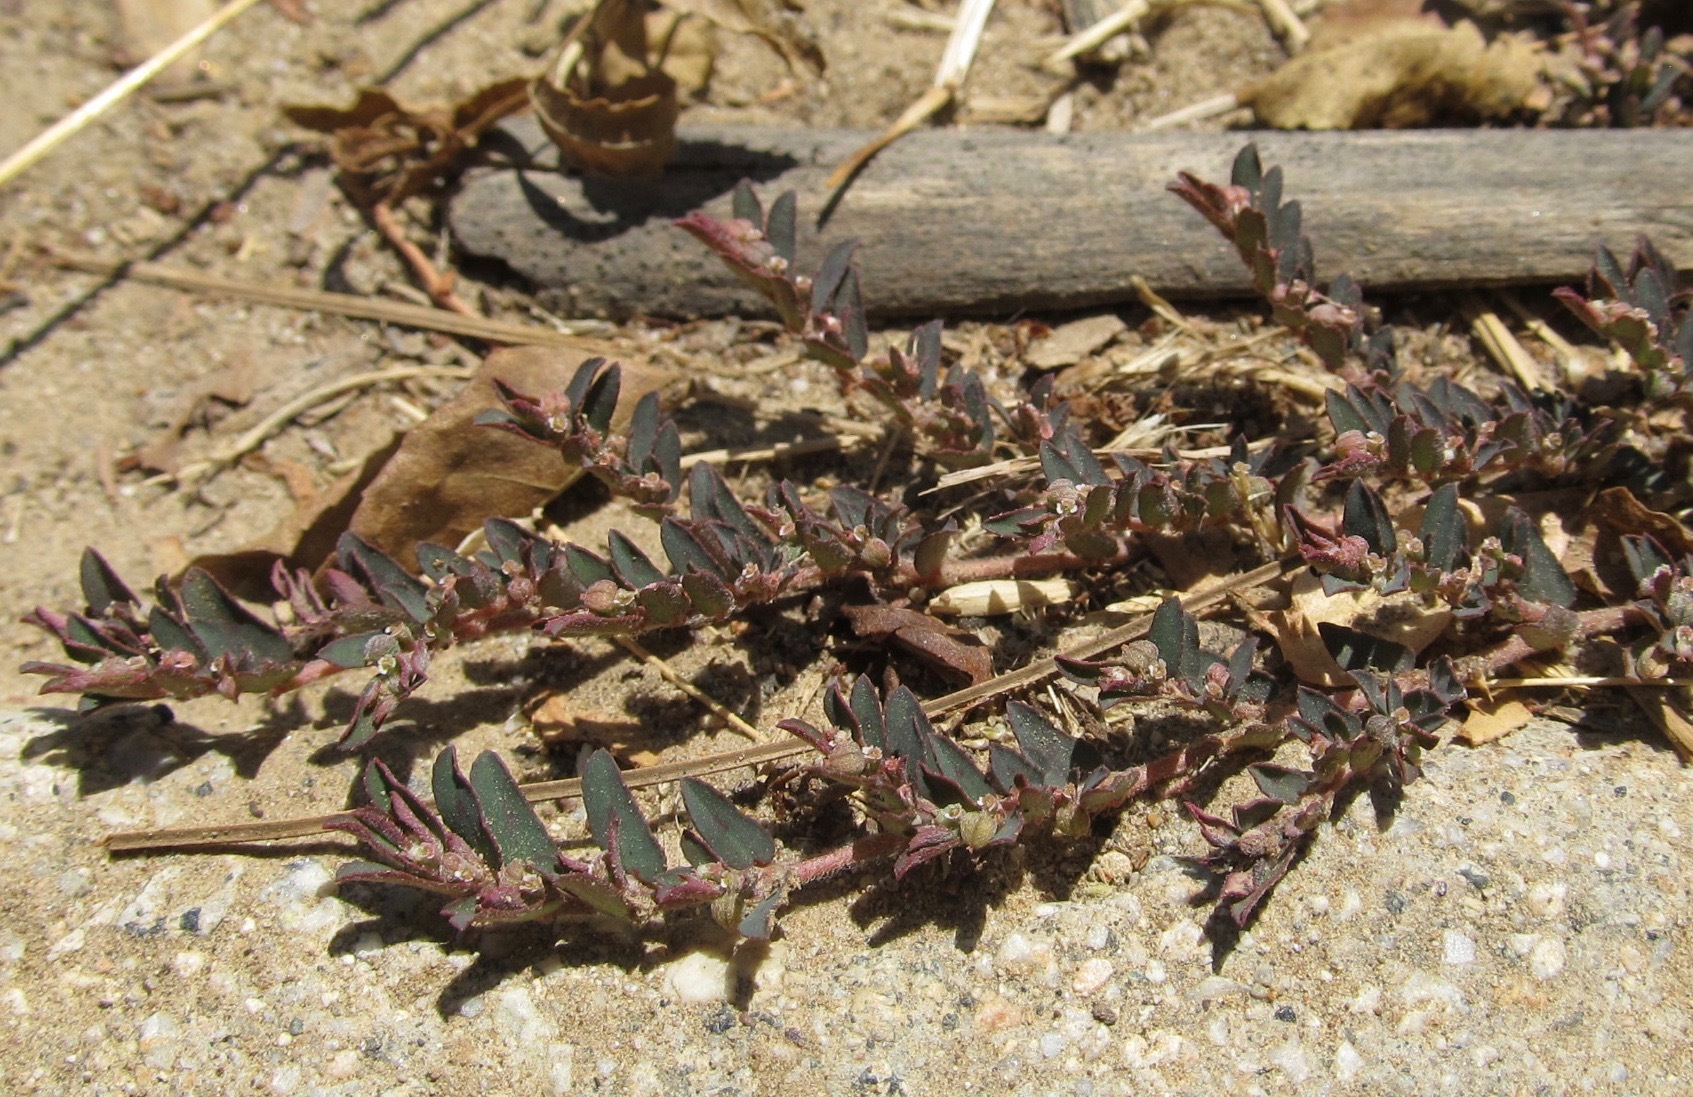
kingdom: Plantae
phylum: Tracheophyta
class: Magnoliopsida
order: Malpighiales
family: Euphorbiaceae
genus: Euphorbia
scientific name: Euphorbia maculata
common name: Spotted spurge
